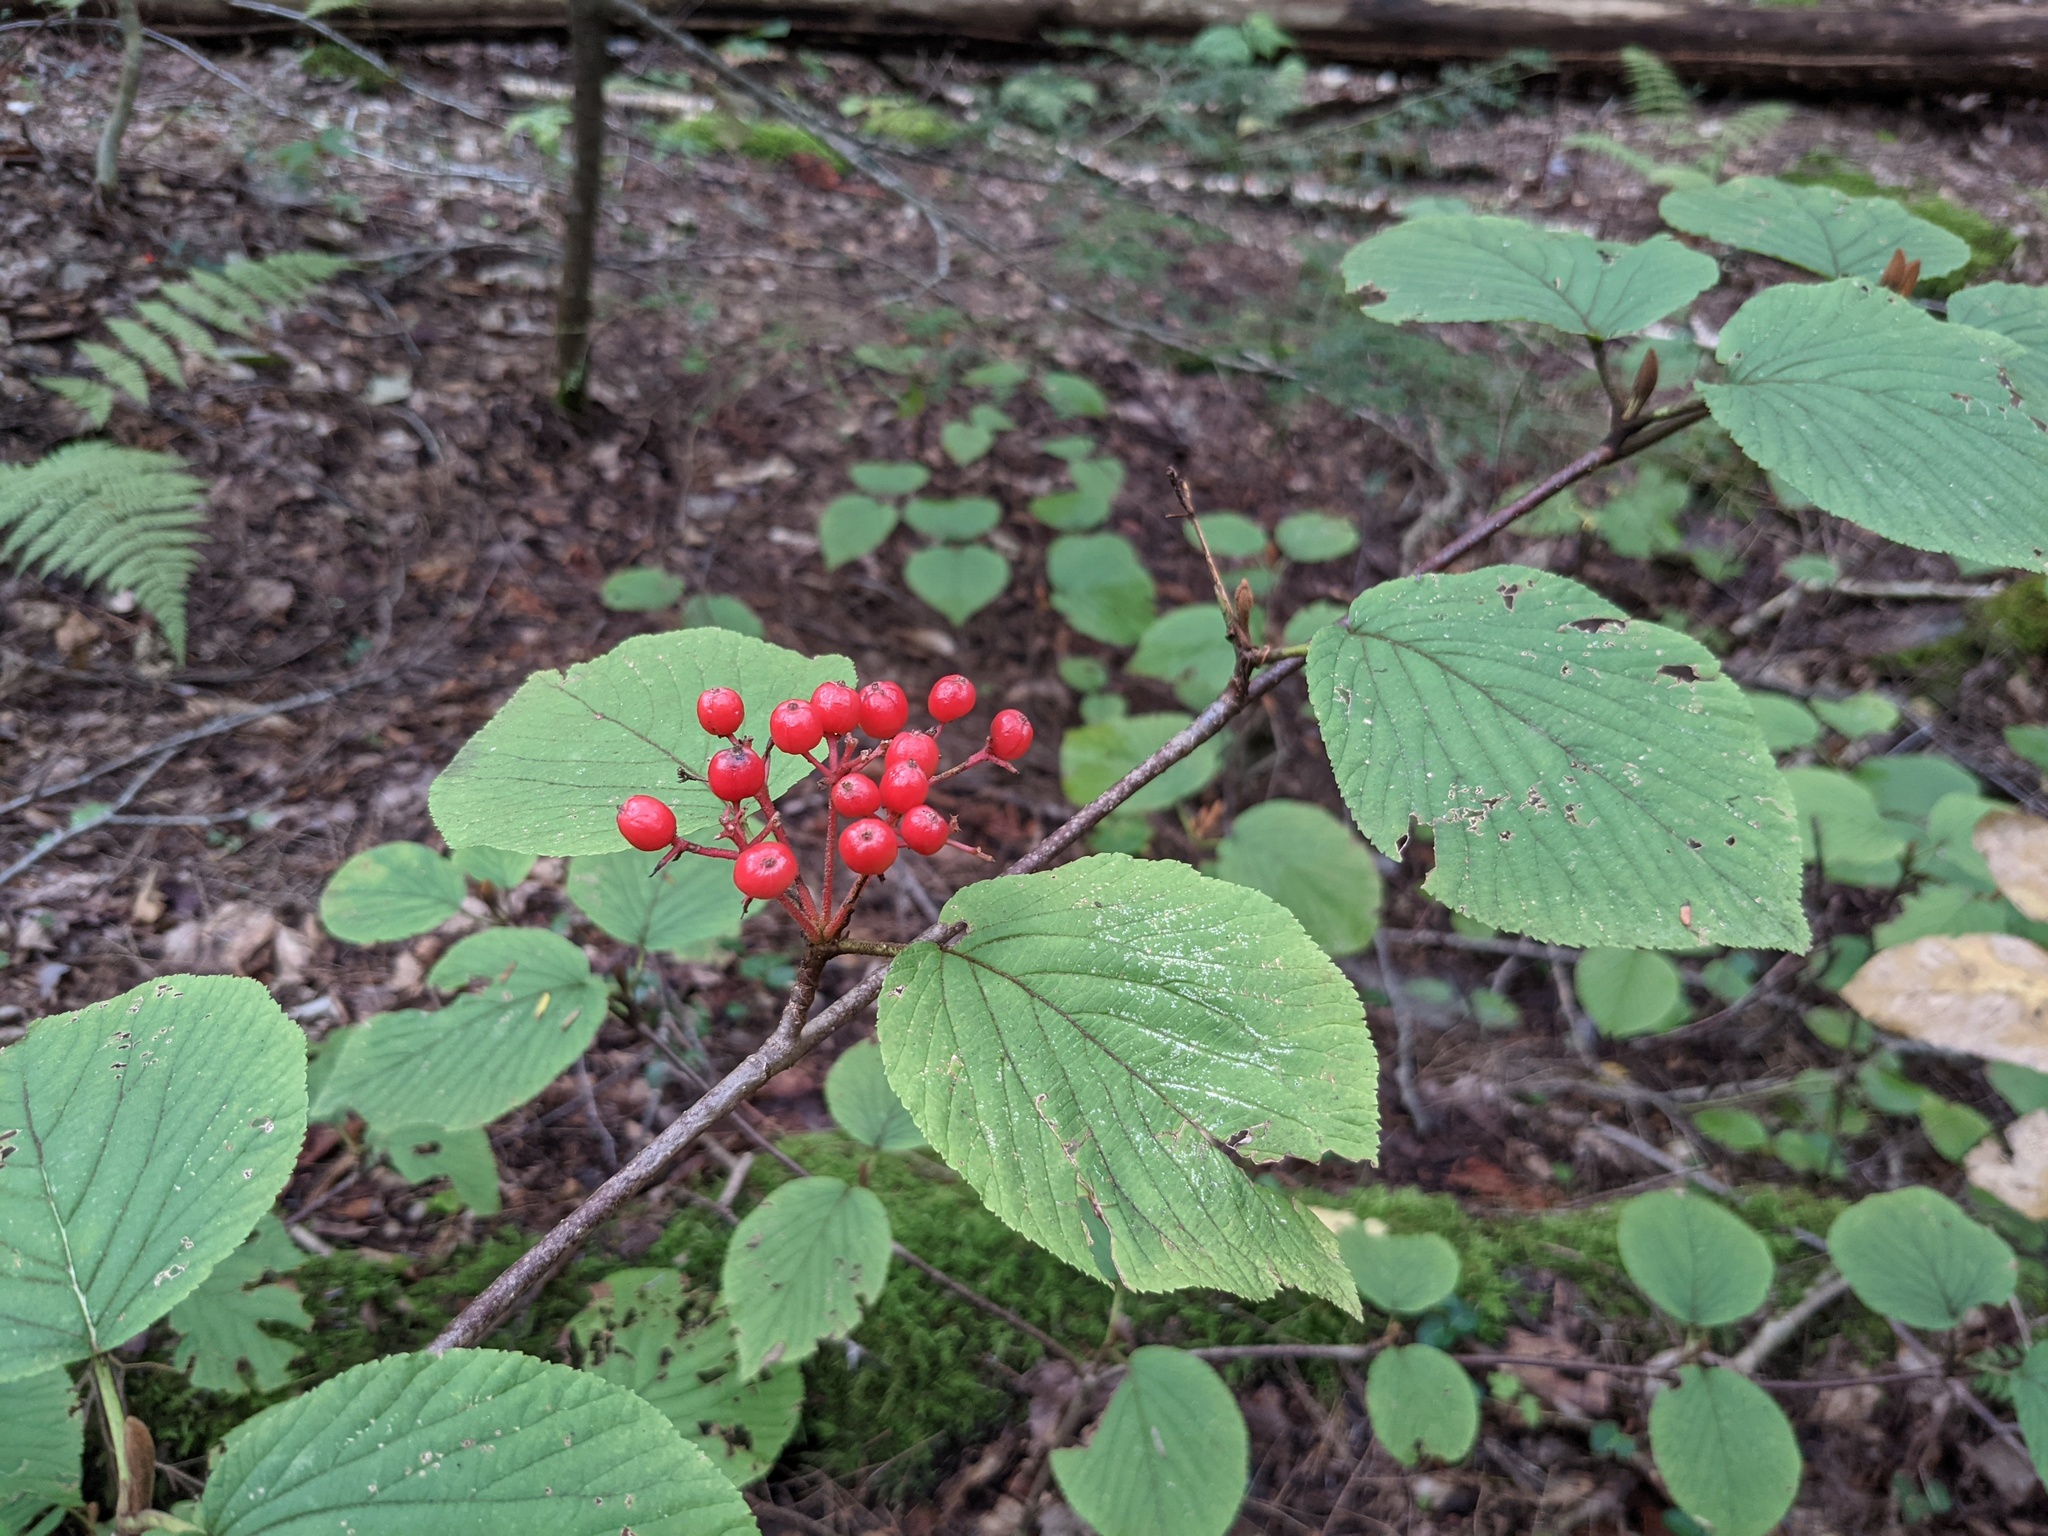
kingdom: Plantae
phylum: Tracheophyta
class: Magnoliopsida
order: Dipsacales
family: Viburnaceae
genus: Viburnum
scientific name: Viburnum lantanoides
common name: Hobblebush
